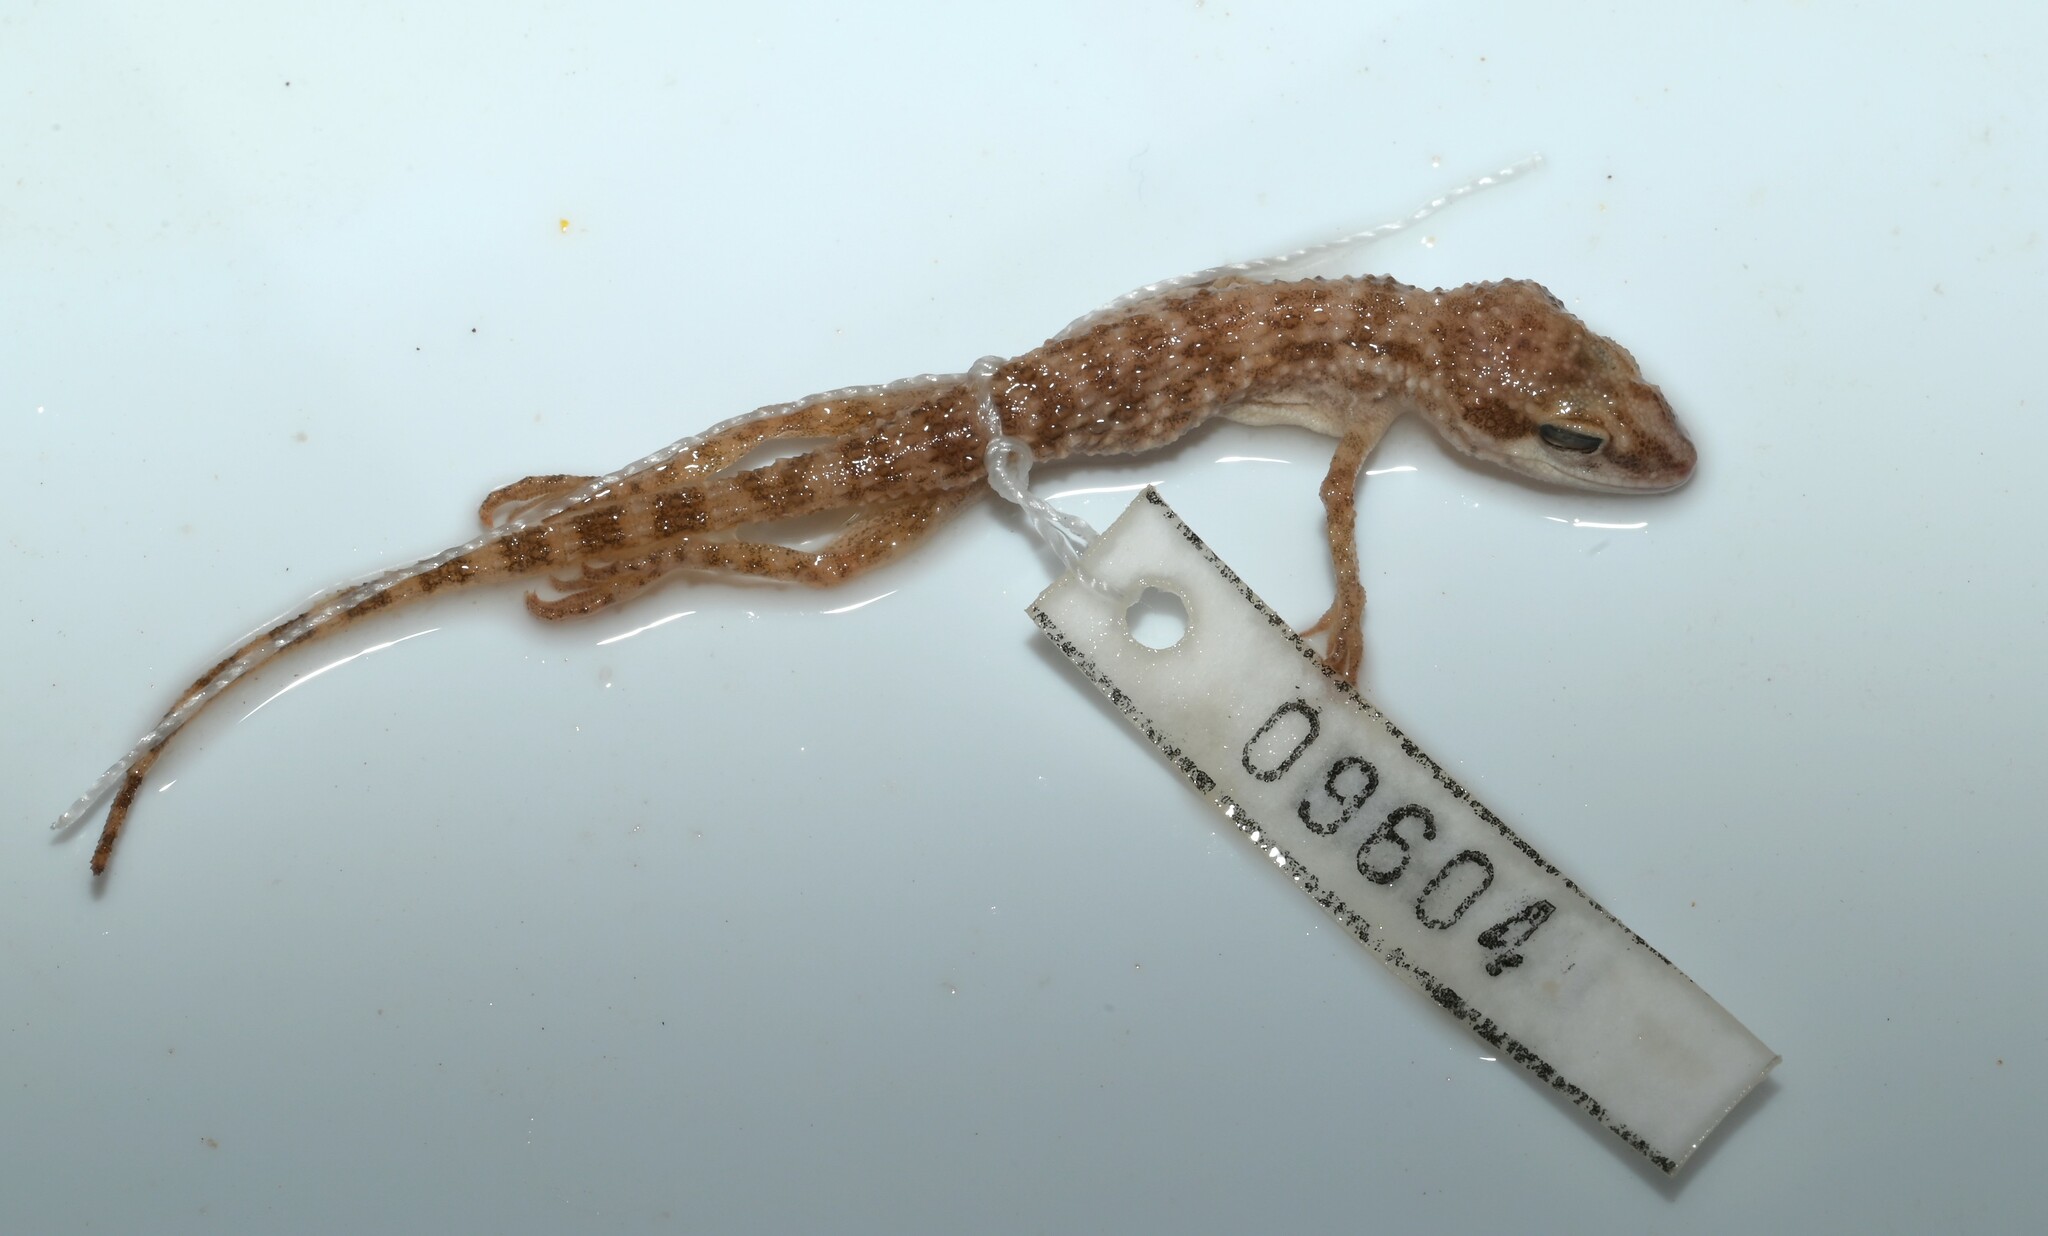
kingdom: Animalia
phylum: Chordata
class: Squamata
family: Gekkonidae
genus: Bunopus
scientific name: Bunopus tuberculatus
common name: Southern tuberculated gecko
